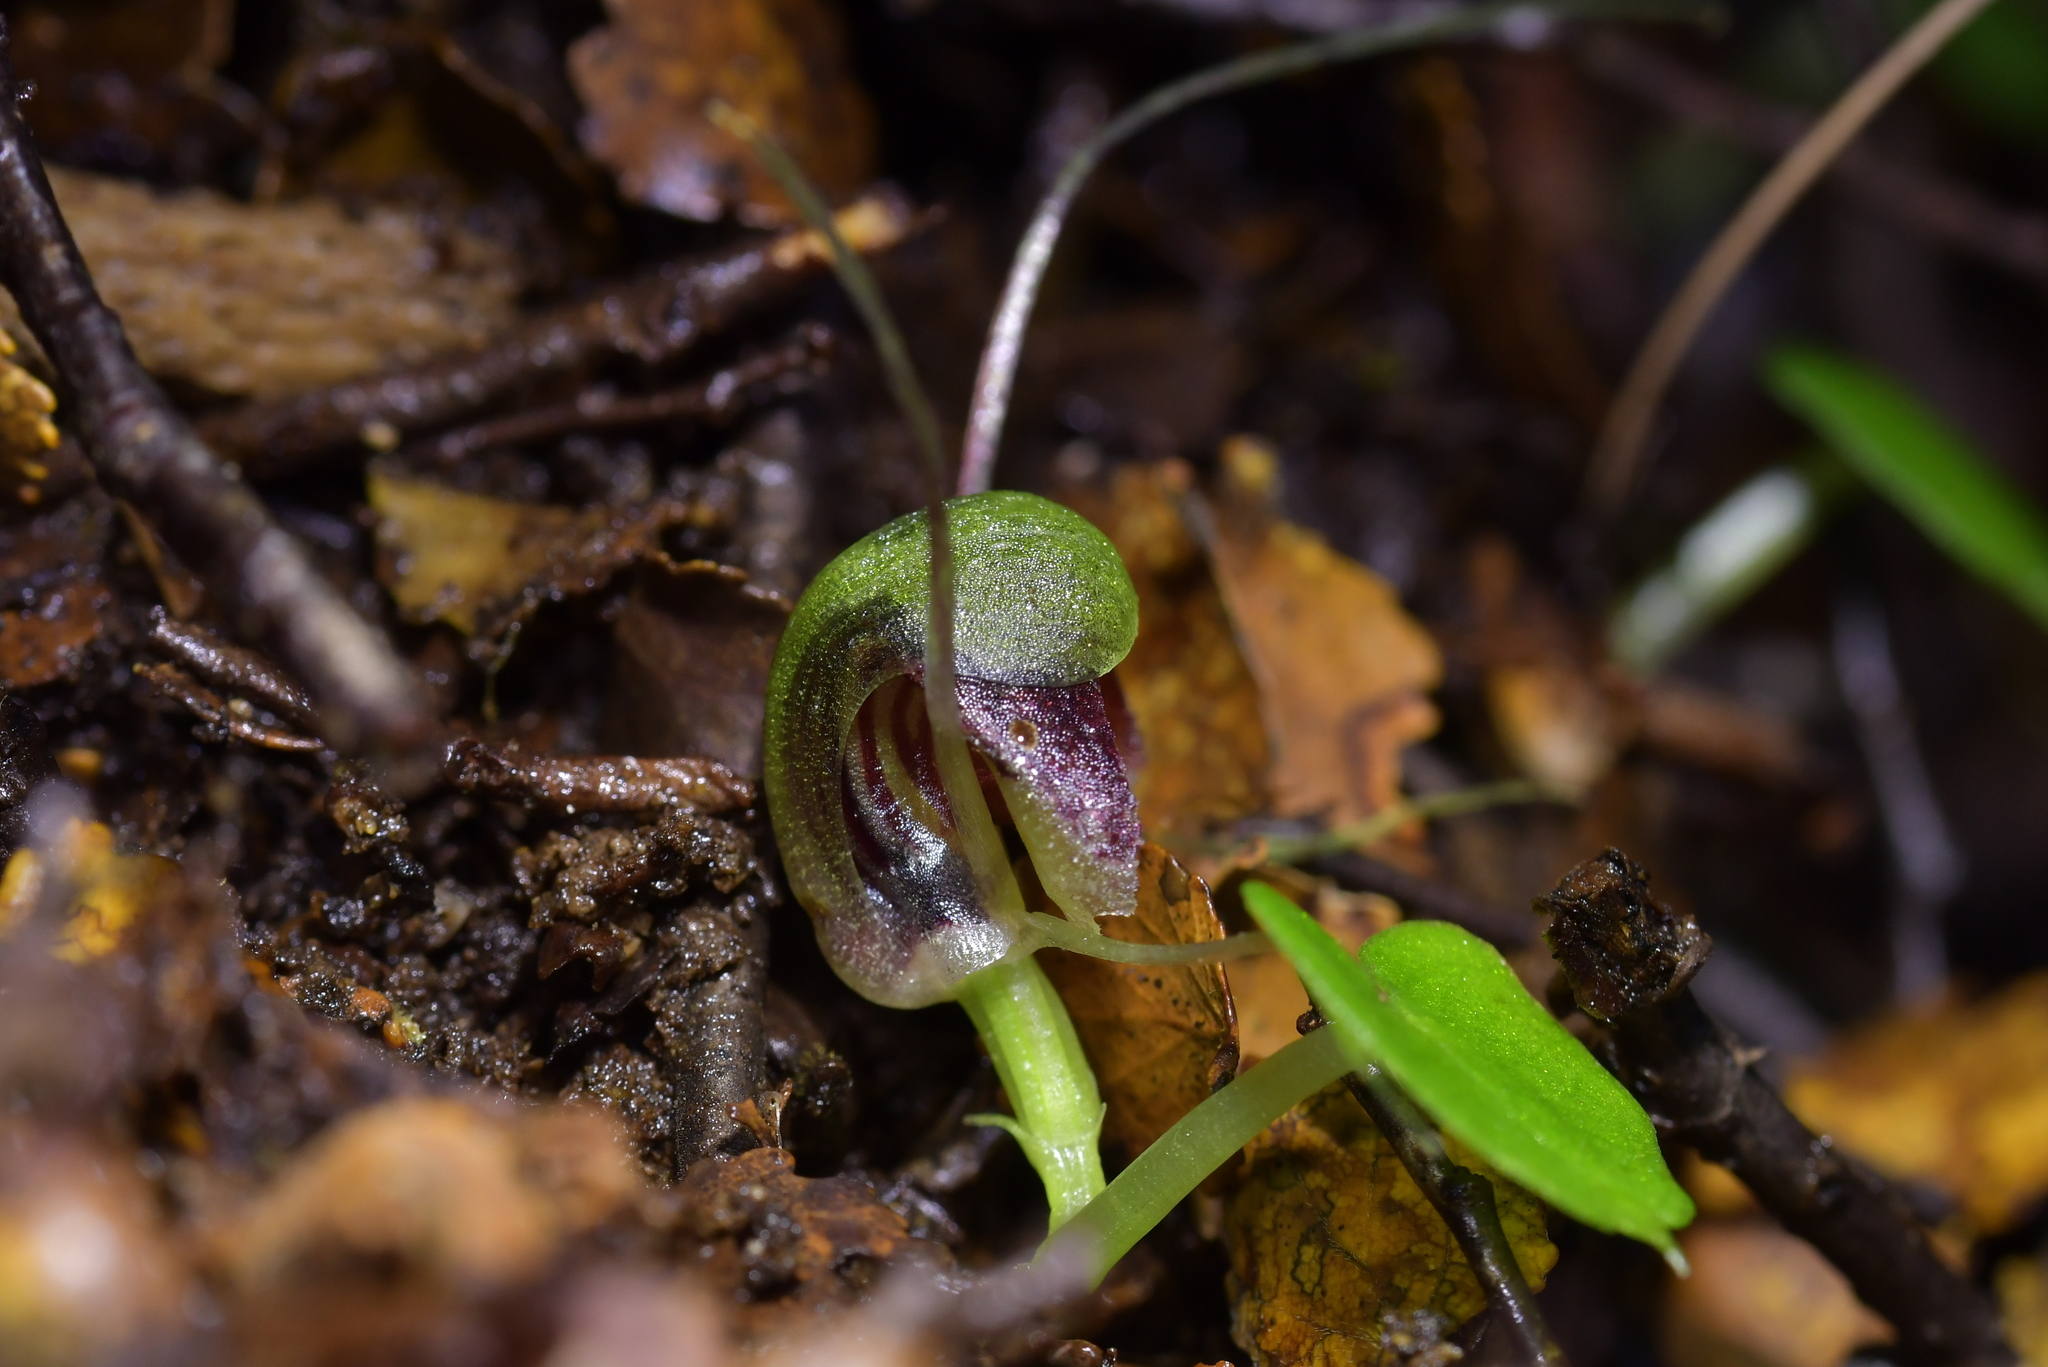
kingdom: Plantae
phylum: Tracheophyta
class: Liliopsida
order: Asparagales
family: Orchidaceae
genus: Corybas
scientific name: Corybas vitreus
